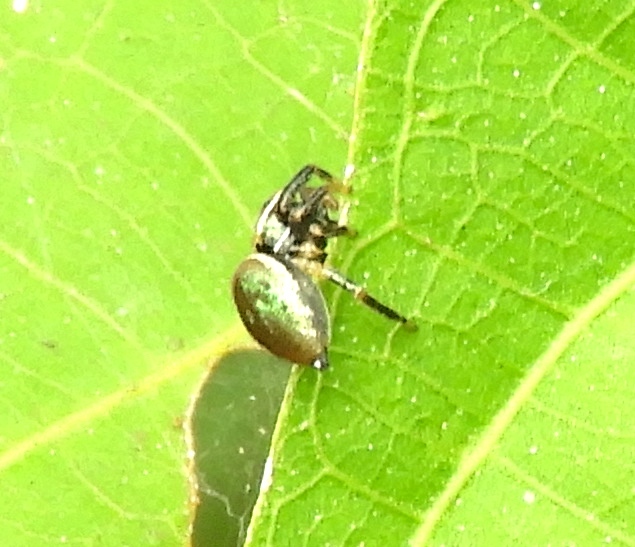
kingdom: Animalia
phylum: Arthropoda
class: Arachnida
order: Araneae
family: Salticidae
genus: Messua
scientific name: Messua
